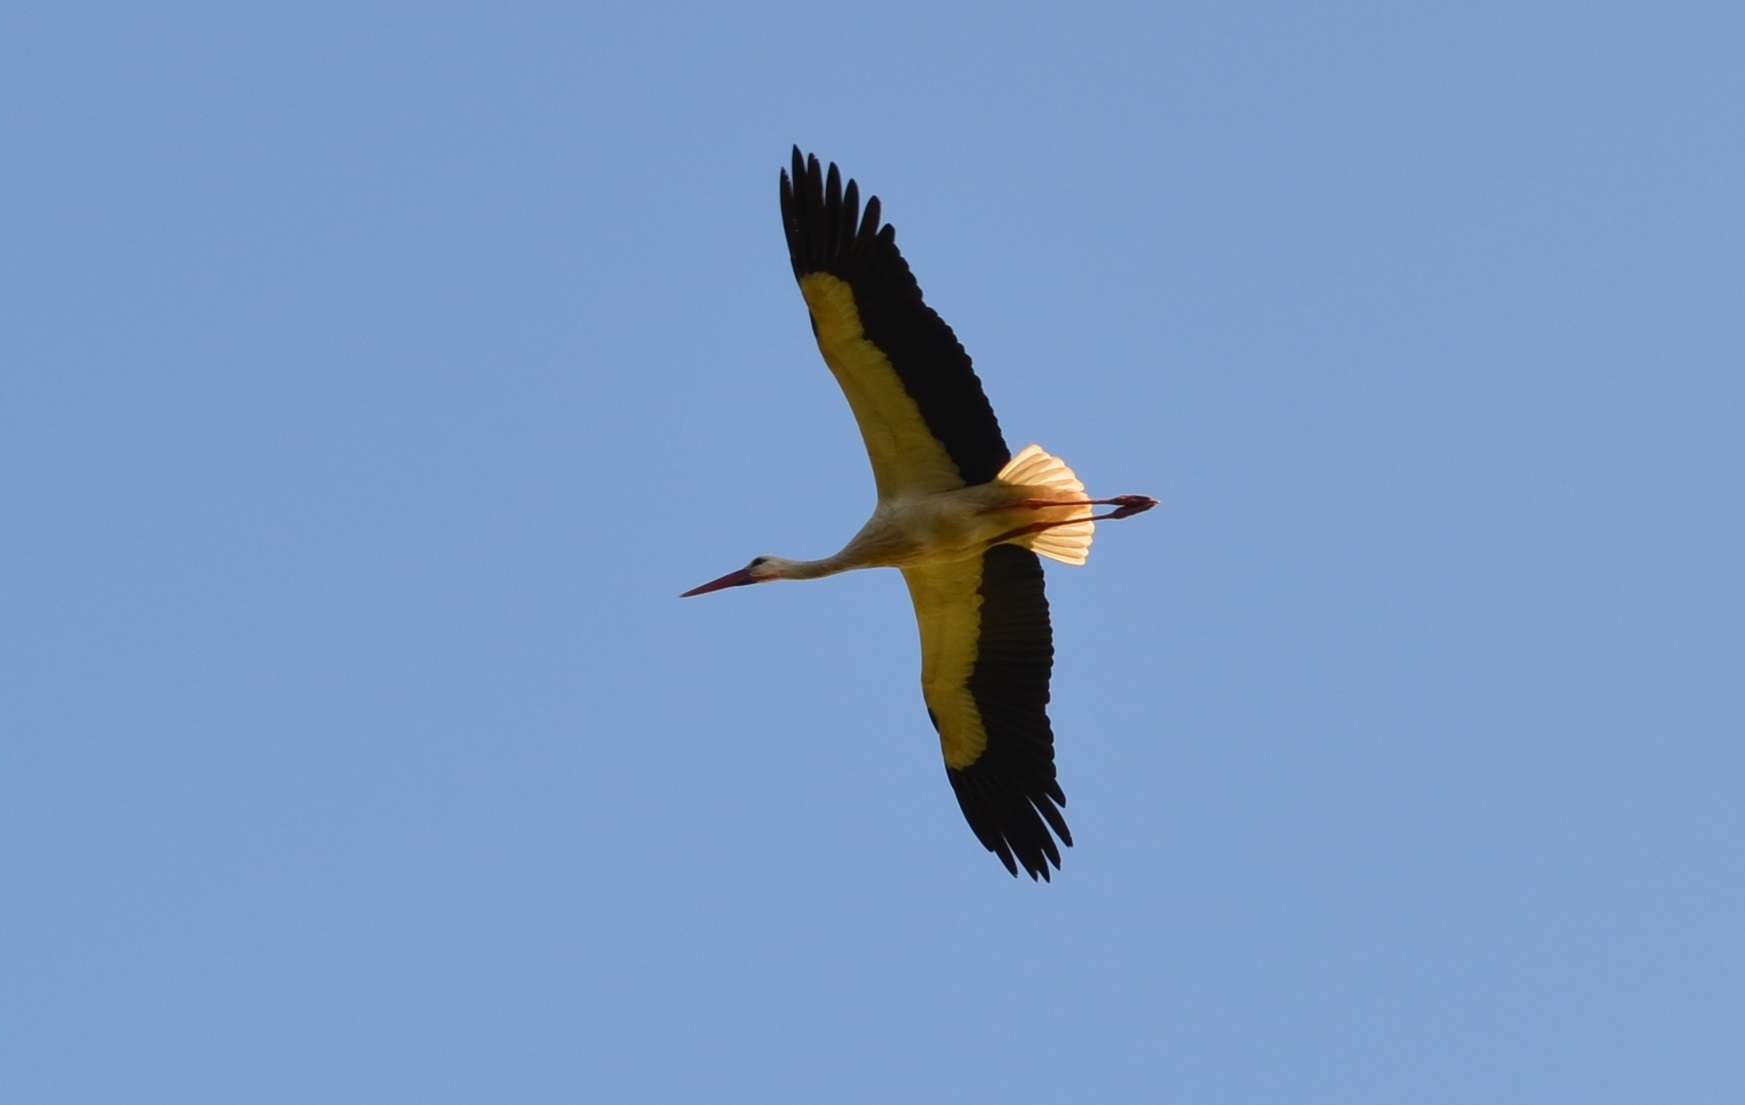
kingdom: Animalia
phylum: Chordata
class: Aves
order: Ciconiiformes
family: Ciconiidae
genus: Ciconia
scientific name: Ciconia ciconia
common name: White stork
